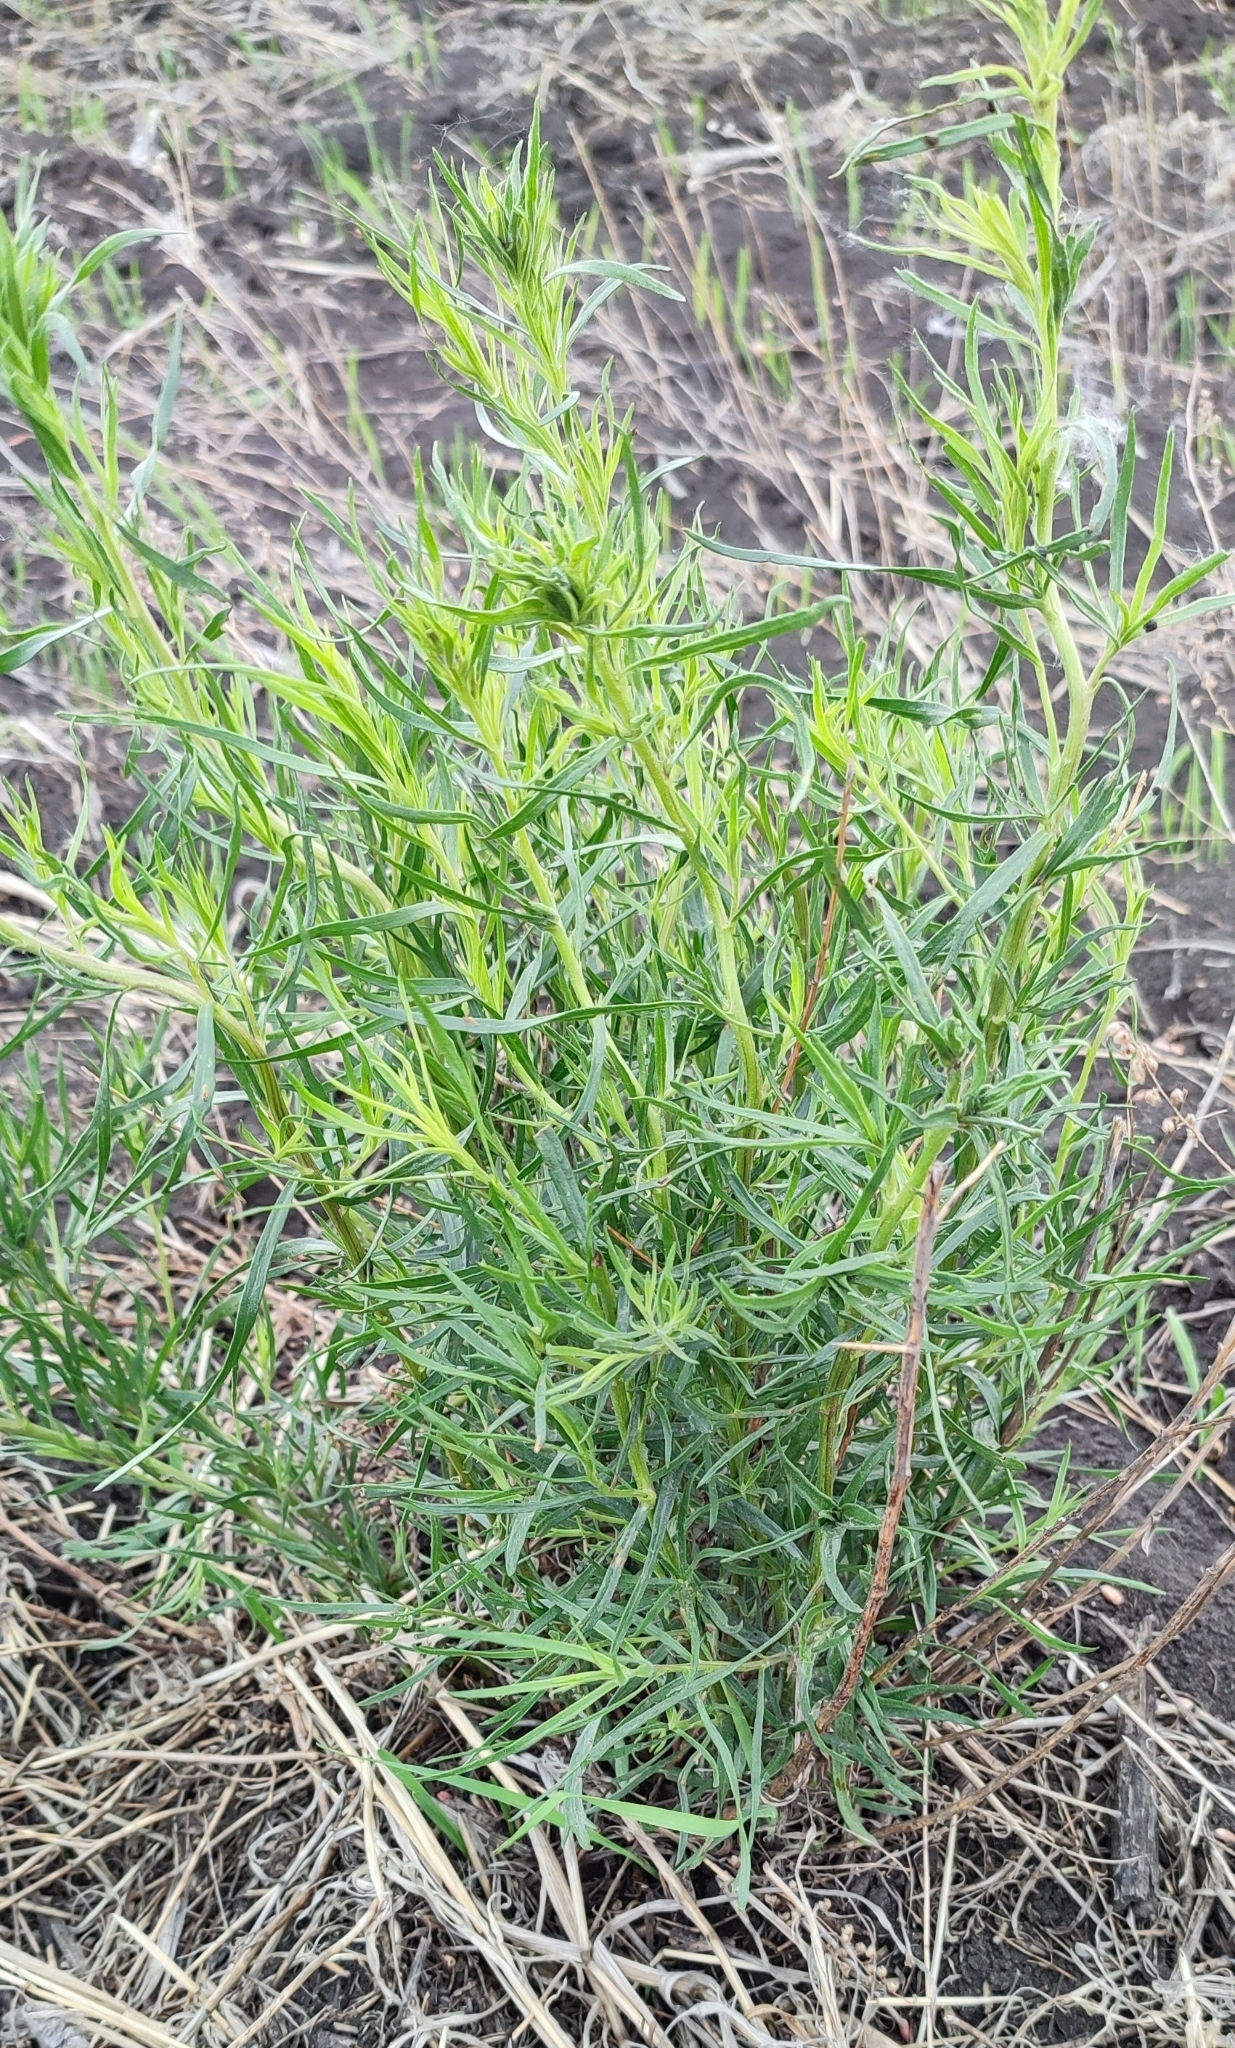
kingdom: Plantae
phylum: Tracheophyta
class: Magnoliopsida
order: Asterales
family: Asteraceae
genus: Artemisia
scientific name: Artemisia dracunculus
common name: Tarragon
